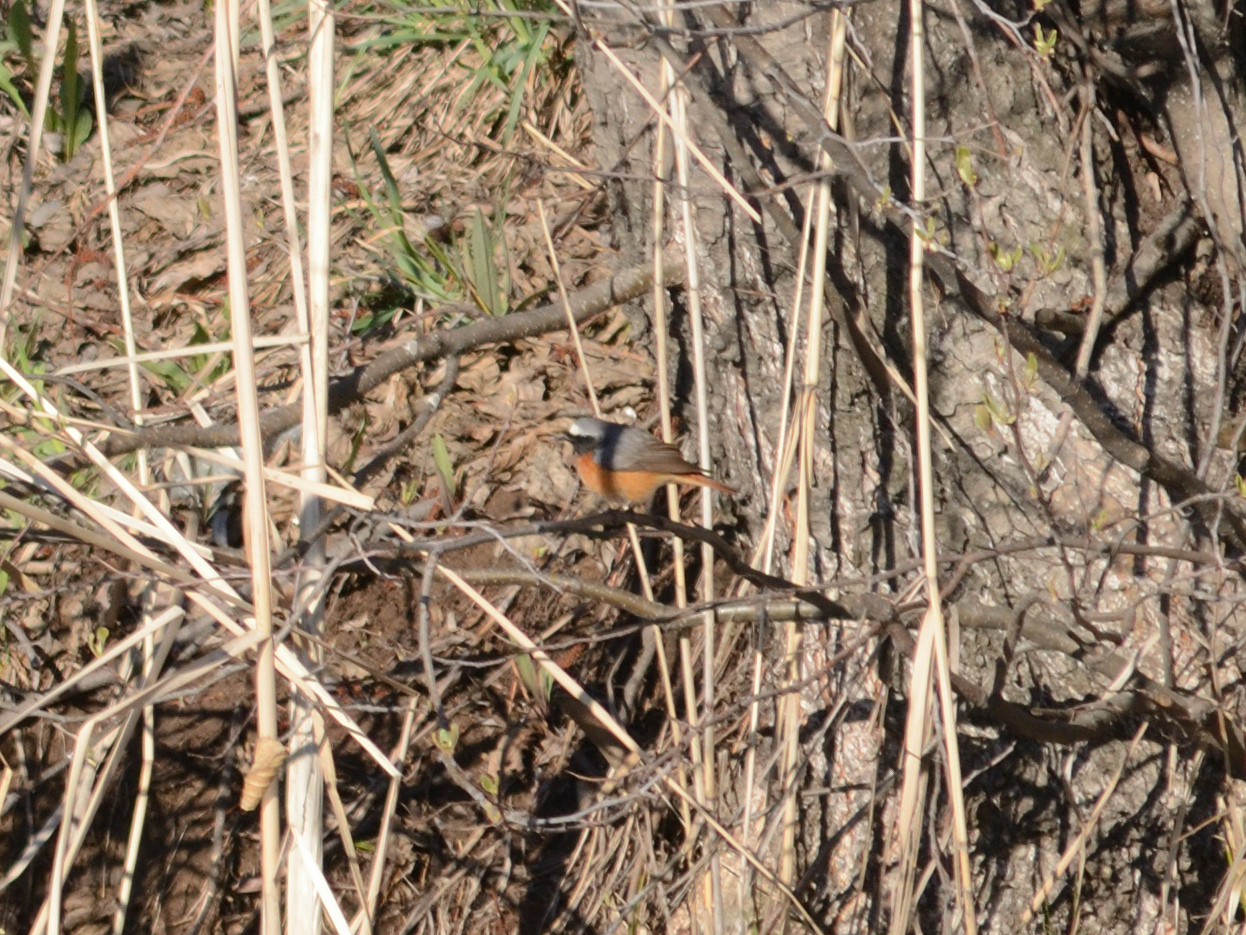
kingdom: Animalia
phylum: Chordata
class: Aves
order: Passeriformes
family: Muscicapidae
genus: Phoenicurus
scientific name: Phoenicurus phoenicurus
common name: Common redstart
